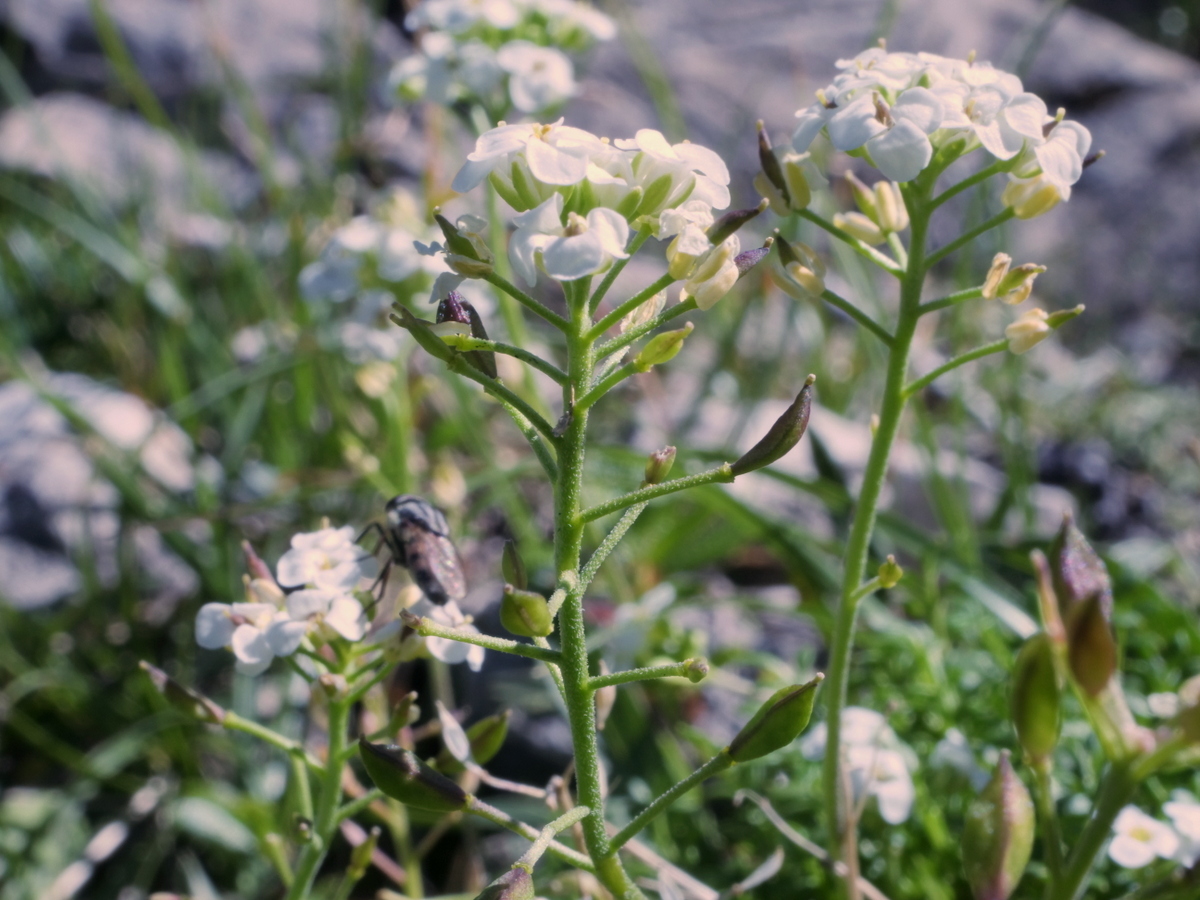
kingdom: Plantae
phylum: Tracheophyta
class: Magnoliopsida
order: Brassicales
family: Brassicaceae
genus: Hornungia
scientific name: Hornungia alpina
